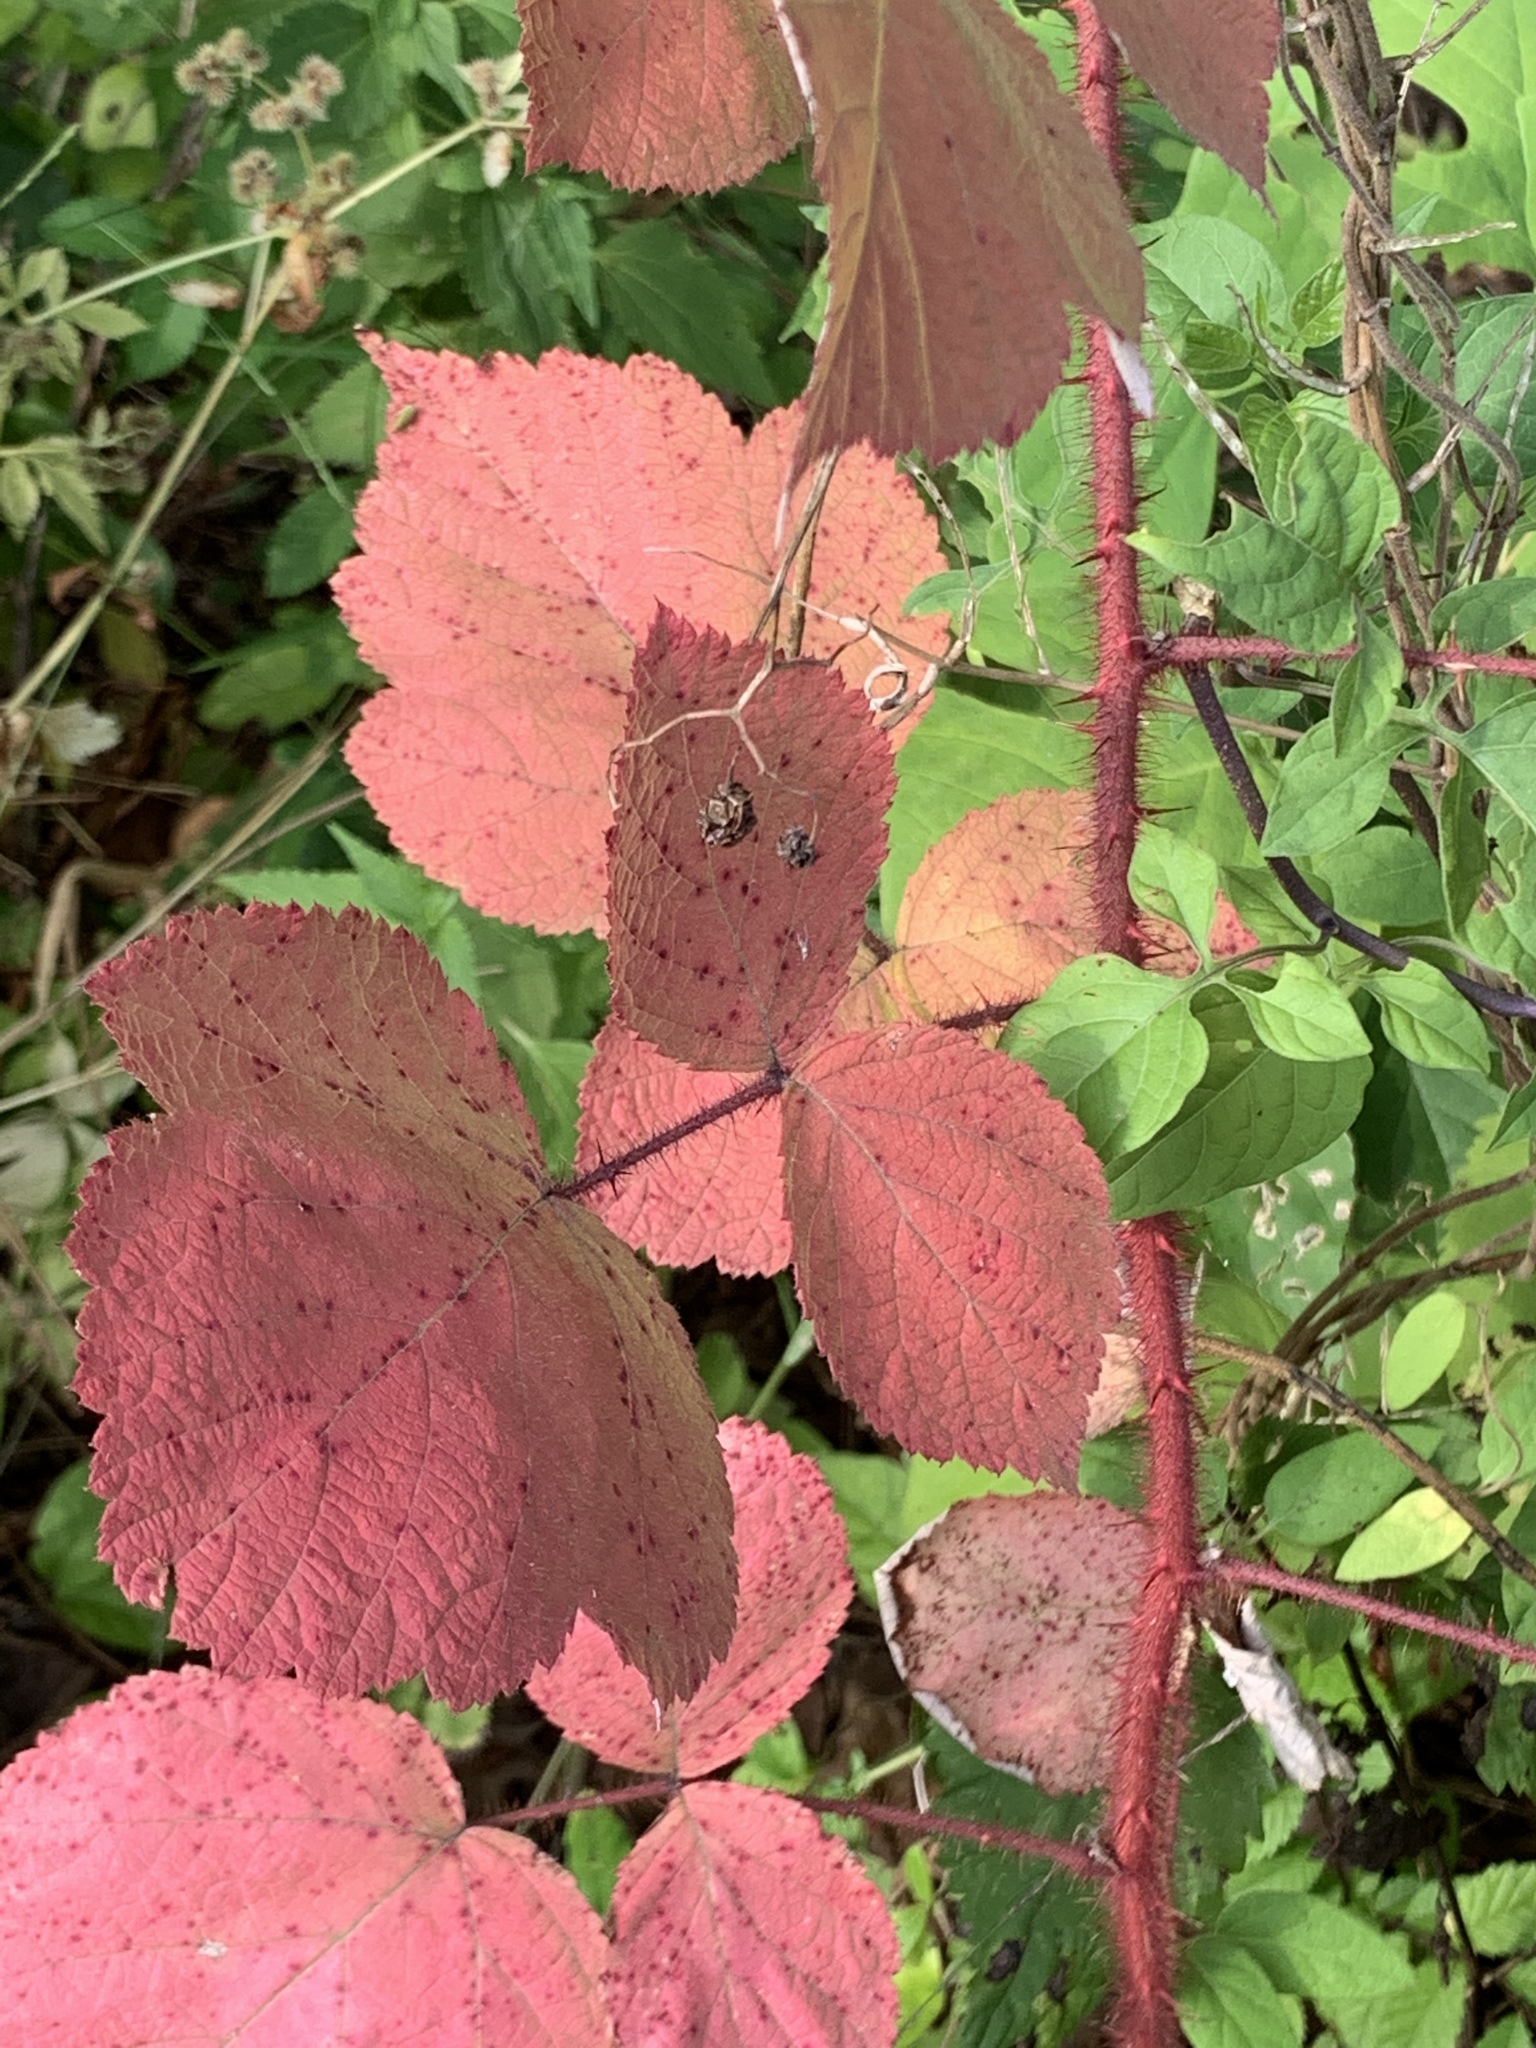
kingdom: Plantae
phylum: Tracheophyta
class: Magnoliopsida
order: Rosales
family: Rosaceae
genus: Rubus
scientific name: Rubus phoenicolasius
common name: Japanese wineberry
